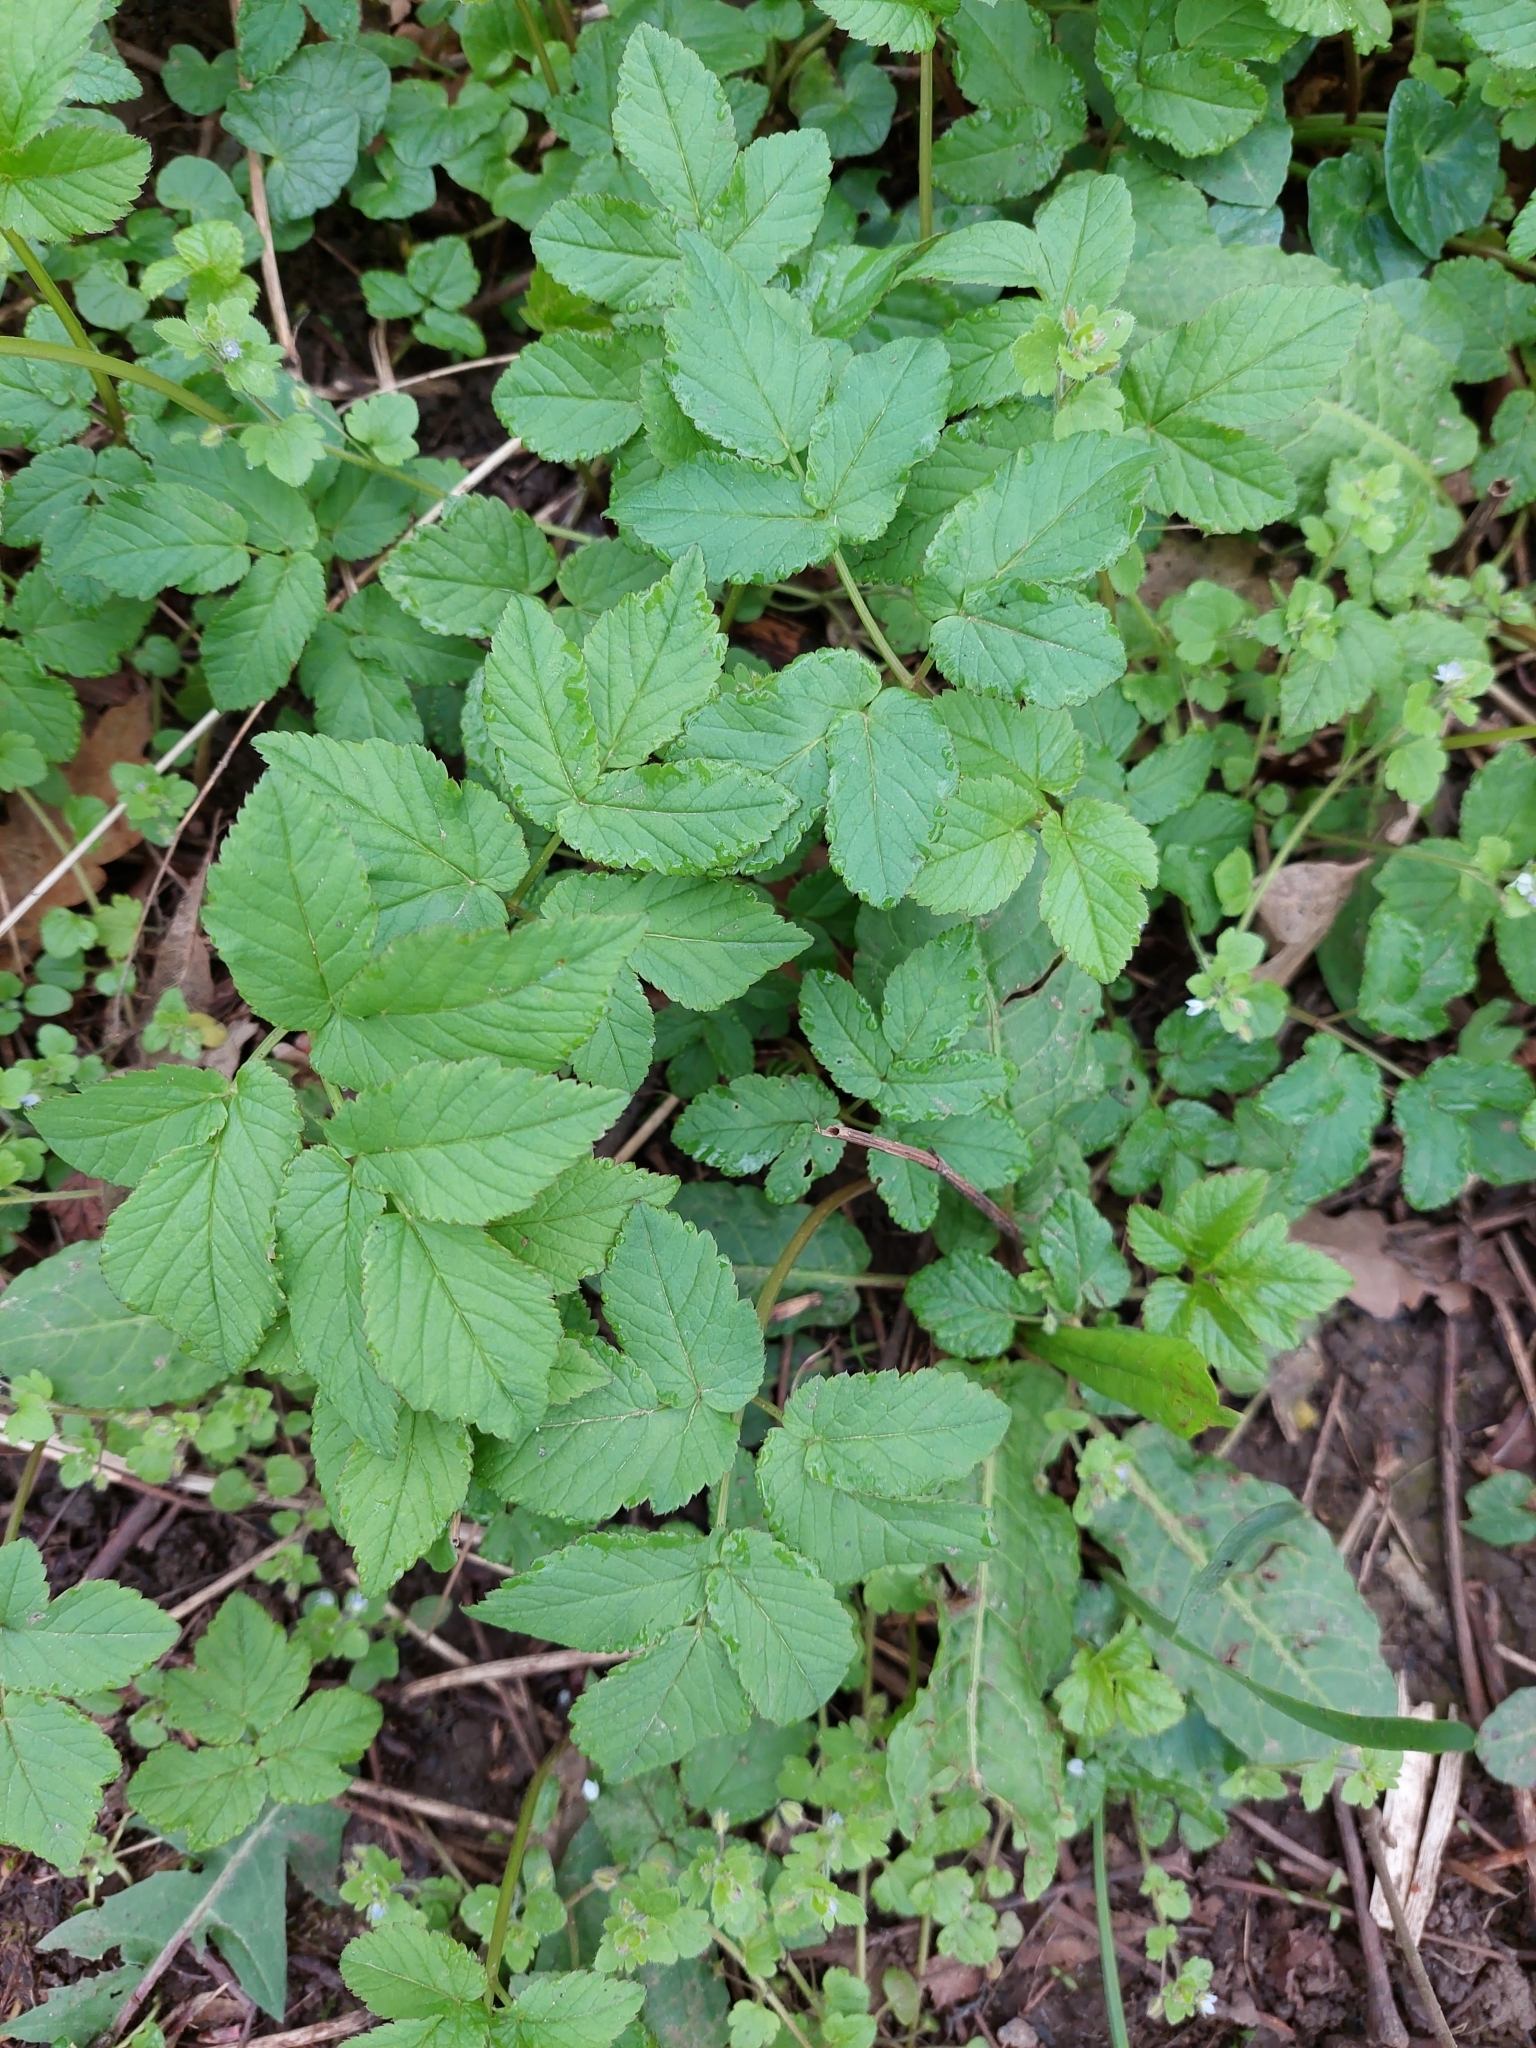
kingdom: Plantae
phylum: Tracheophyta
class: Magnoliopsida
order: Apiales
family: Apiaceae
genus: Aegopodium
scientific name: Aegopodium podagraria
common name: Ground-elder
